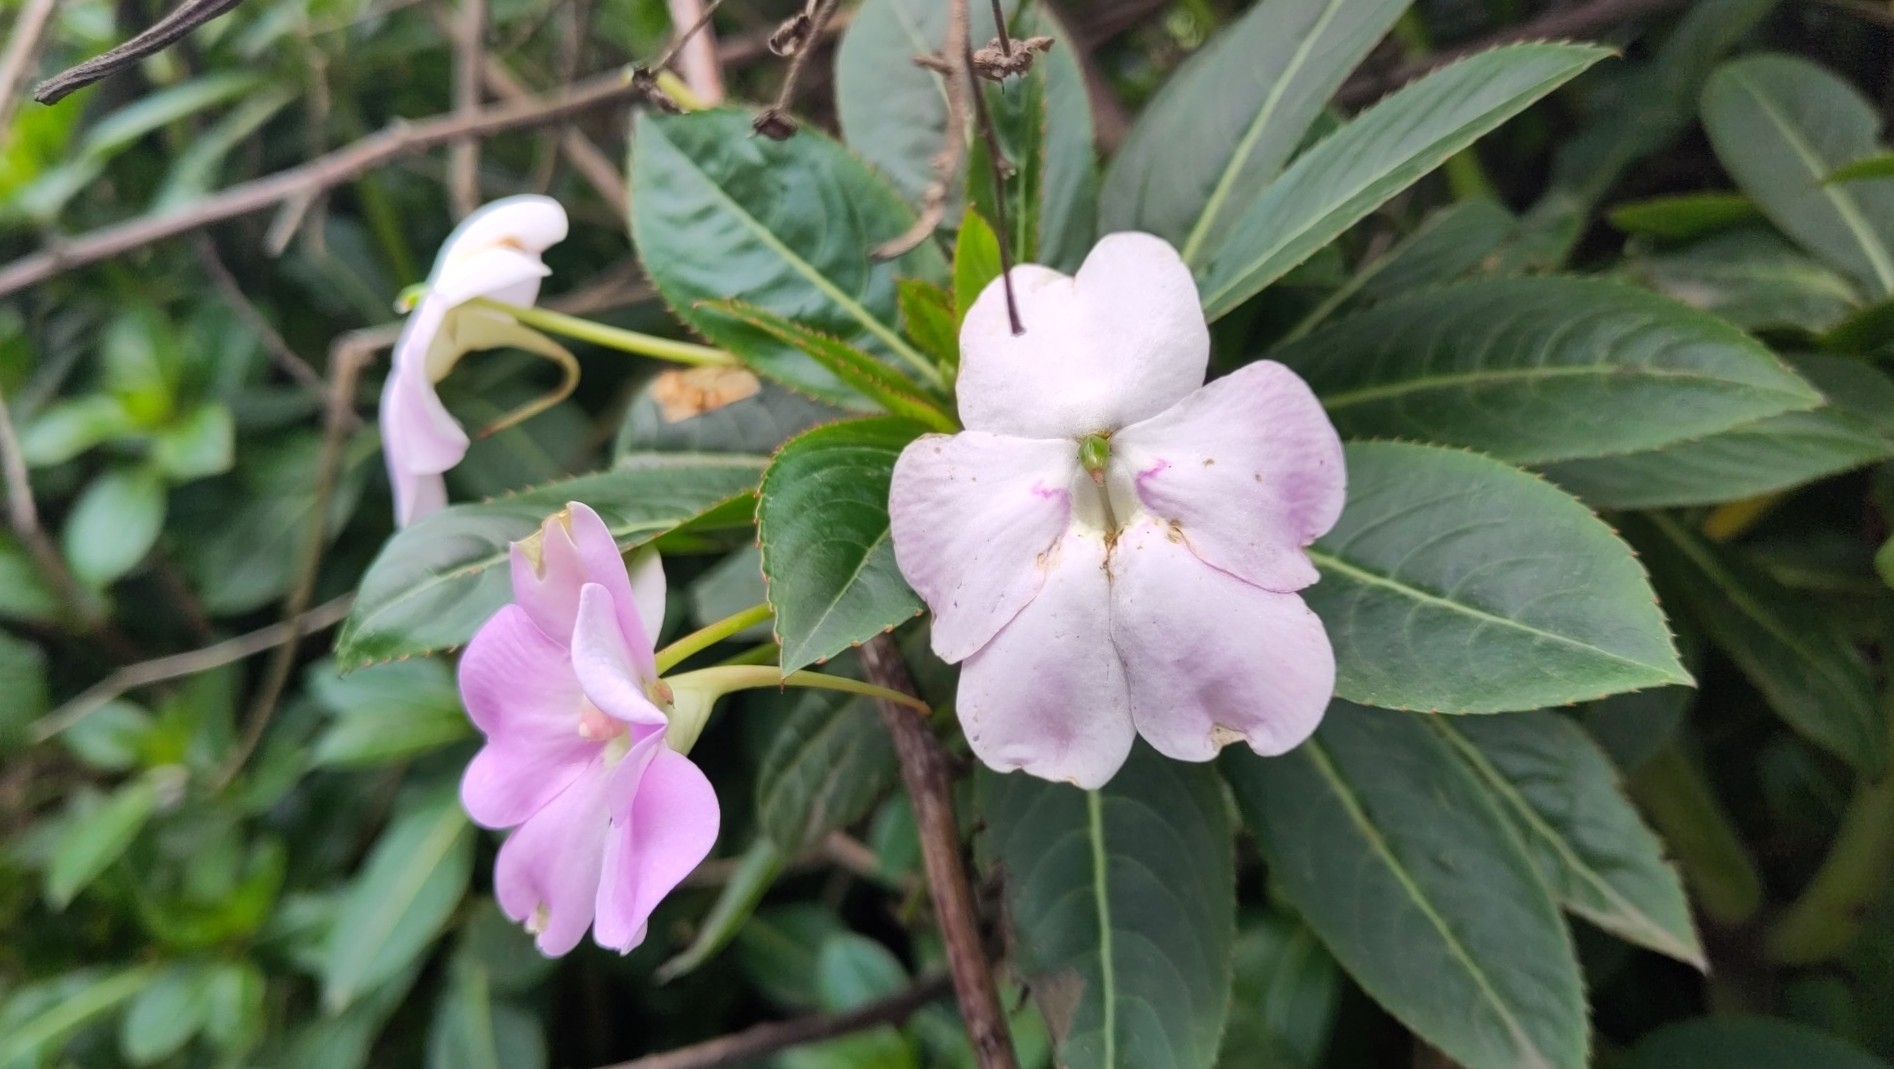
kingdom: Plantae
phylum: Tracheophyta
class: Magnoliopsida
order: Ericales
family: Balsaminaceae
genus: Impatiens
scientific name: Impatiens sodenii
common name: Oliver's touch-me-not
